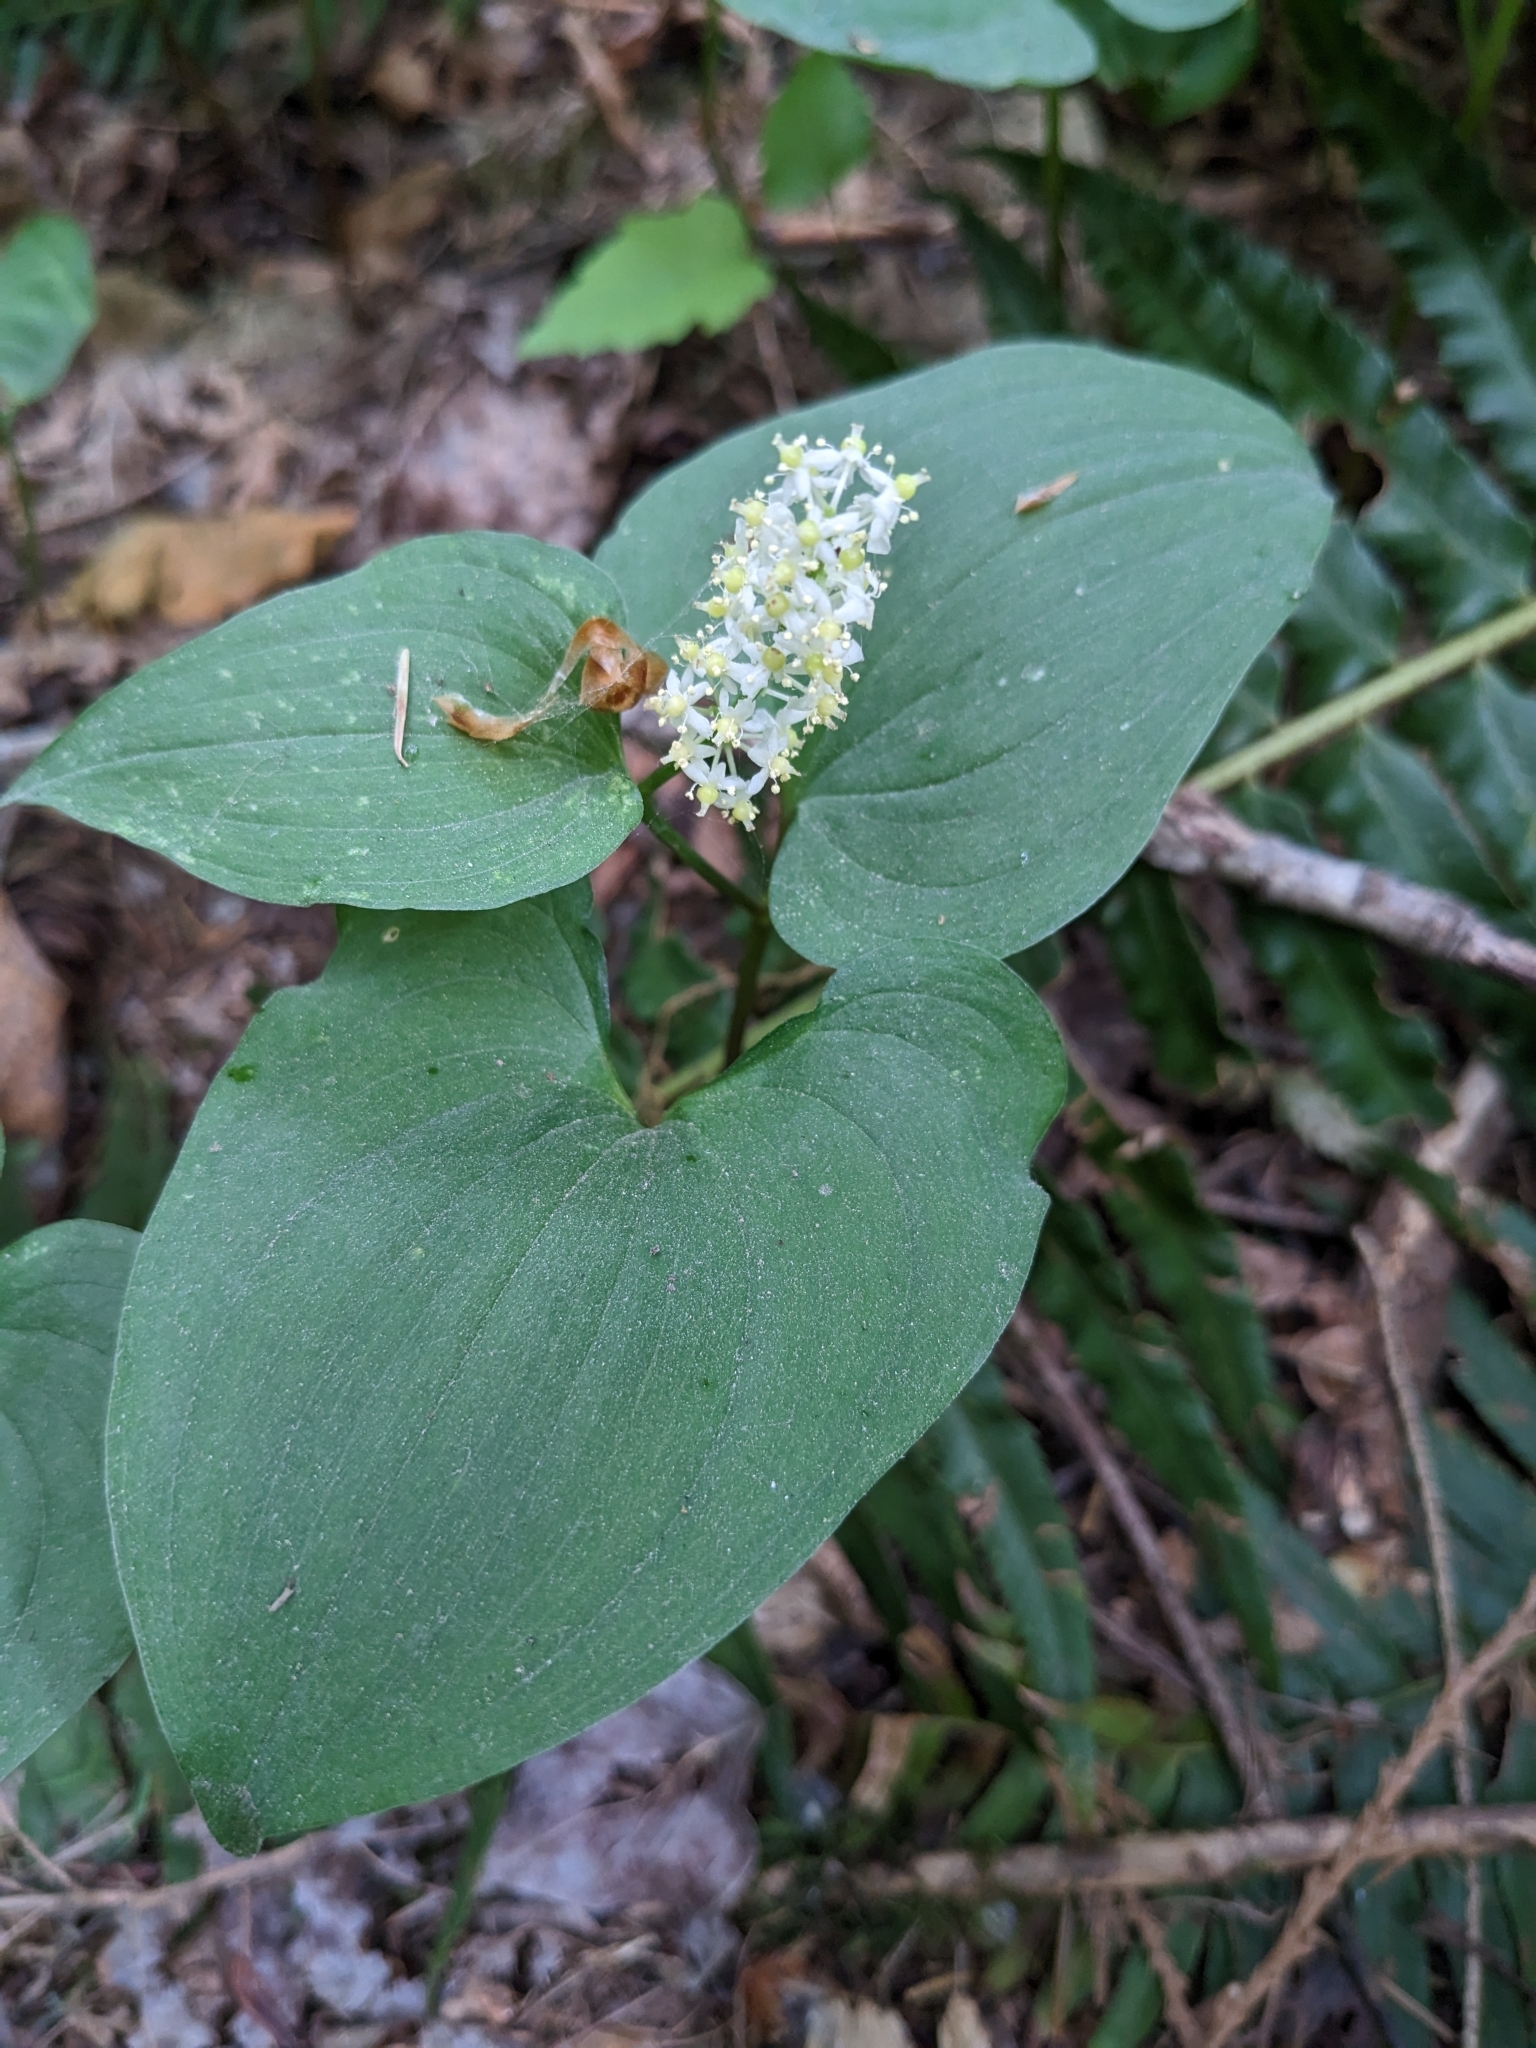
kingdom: Plantae
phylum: Tracheophyta
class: Liliopsida
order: Asparagales
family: Asparagaceae
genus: Maianthemum
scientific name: Maianthemum dilatatum
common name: False lily-of-the-valley
